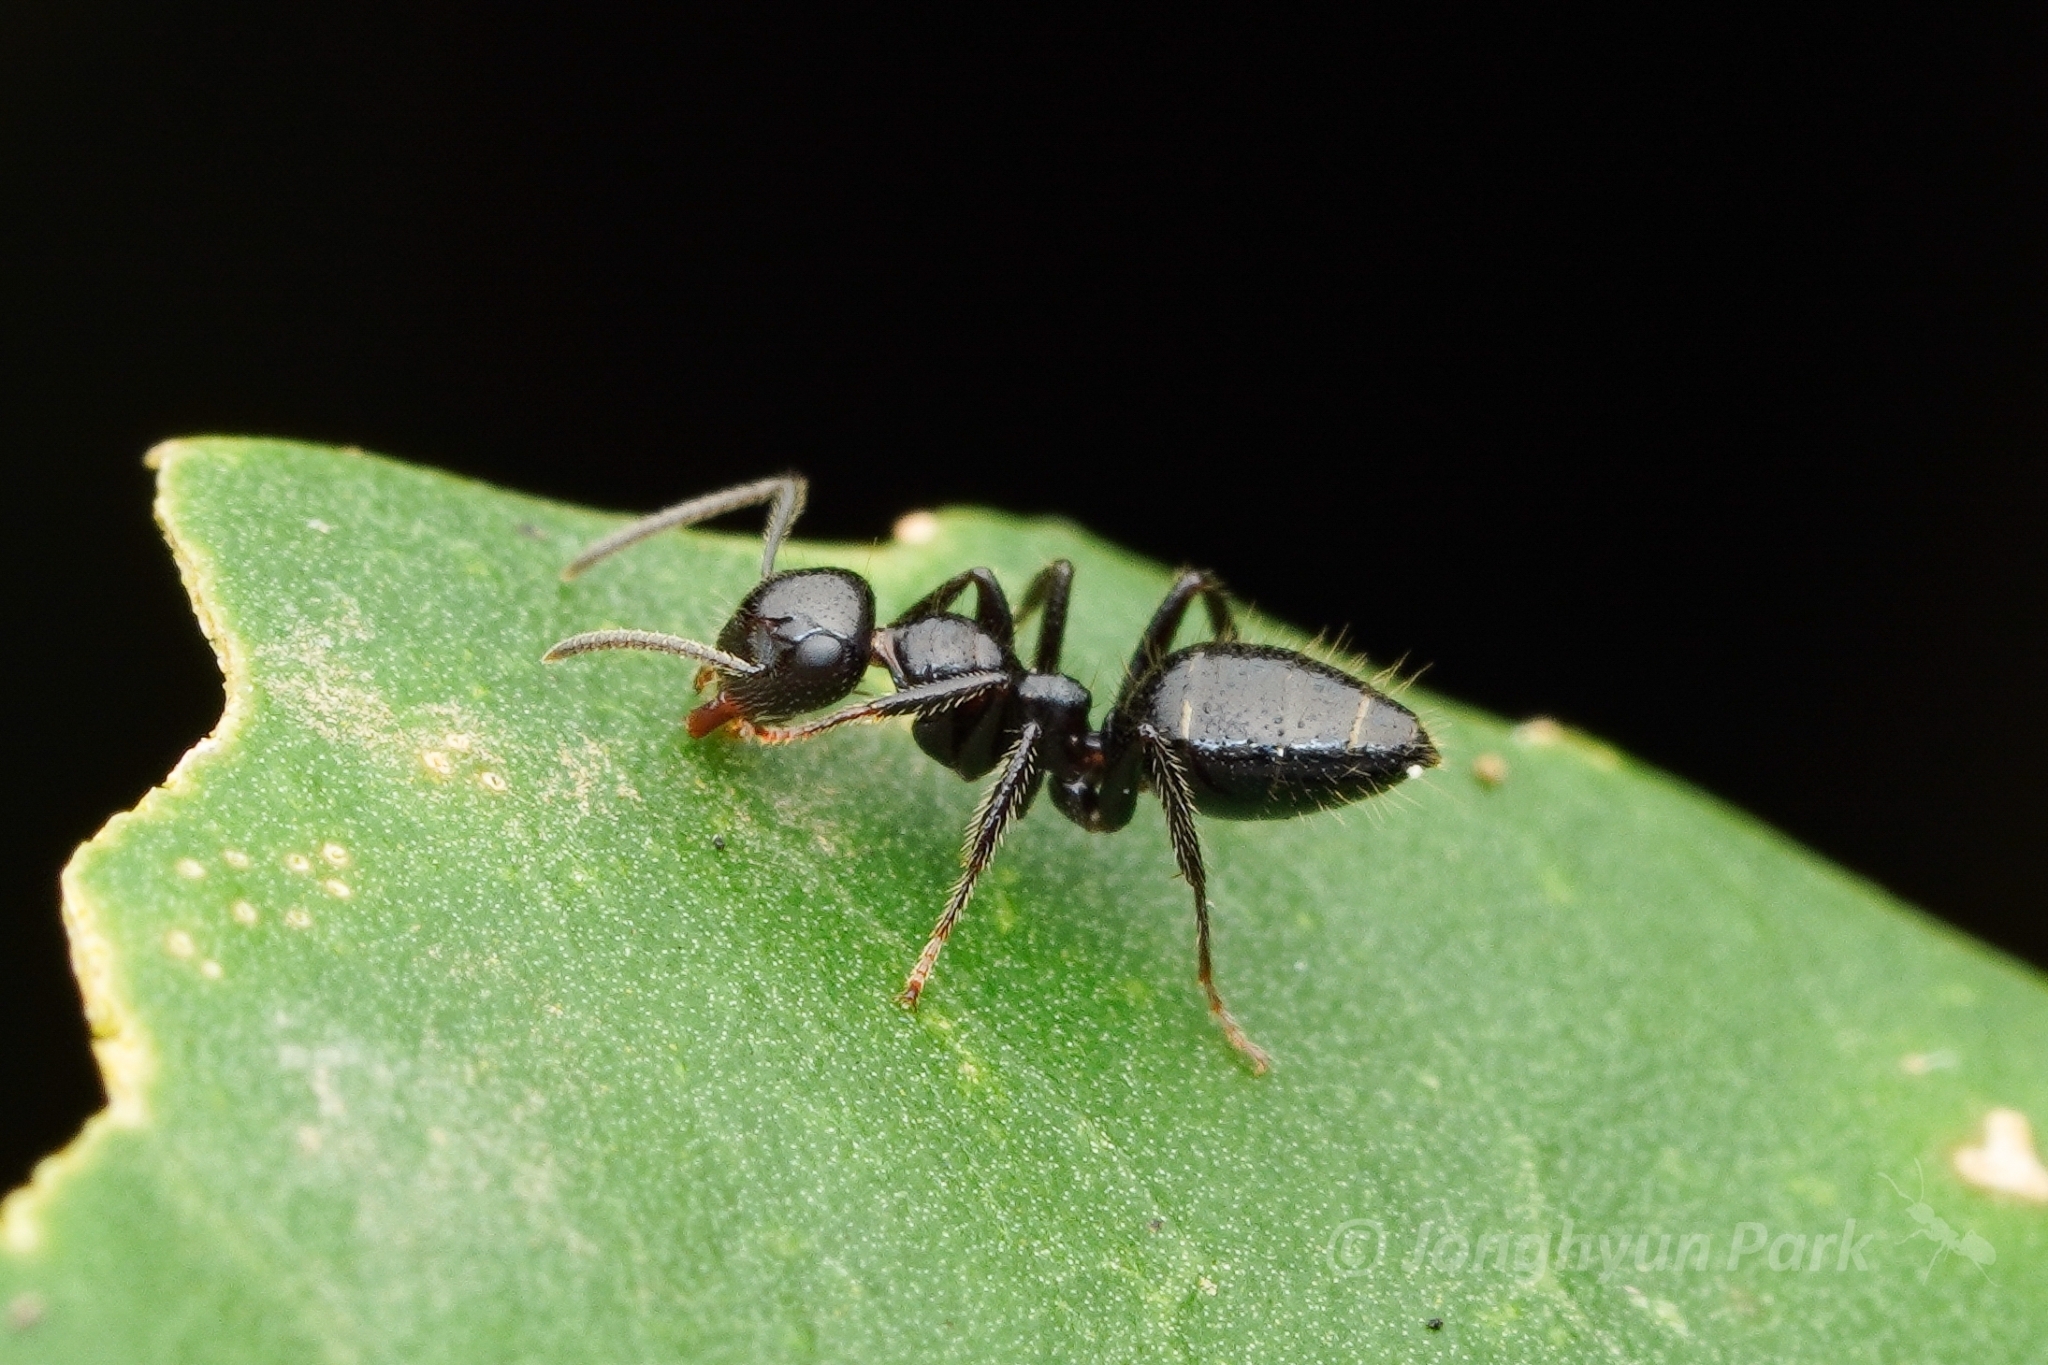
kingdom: Animalia
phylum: Arthropoda
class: Insecta
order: Hymenoptera
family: Formicidae
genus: Camponotus
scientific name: Camponotus vitreus
